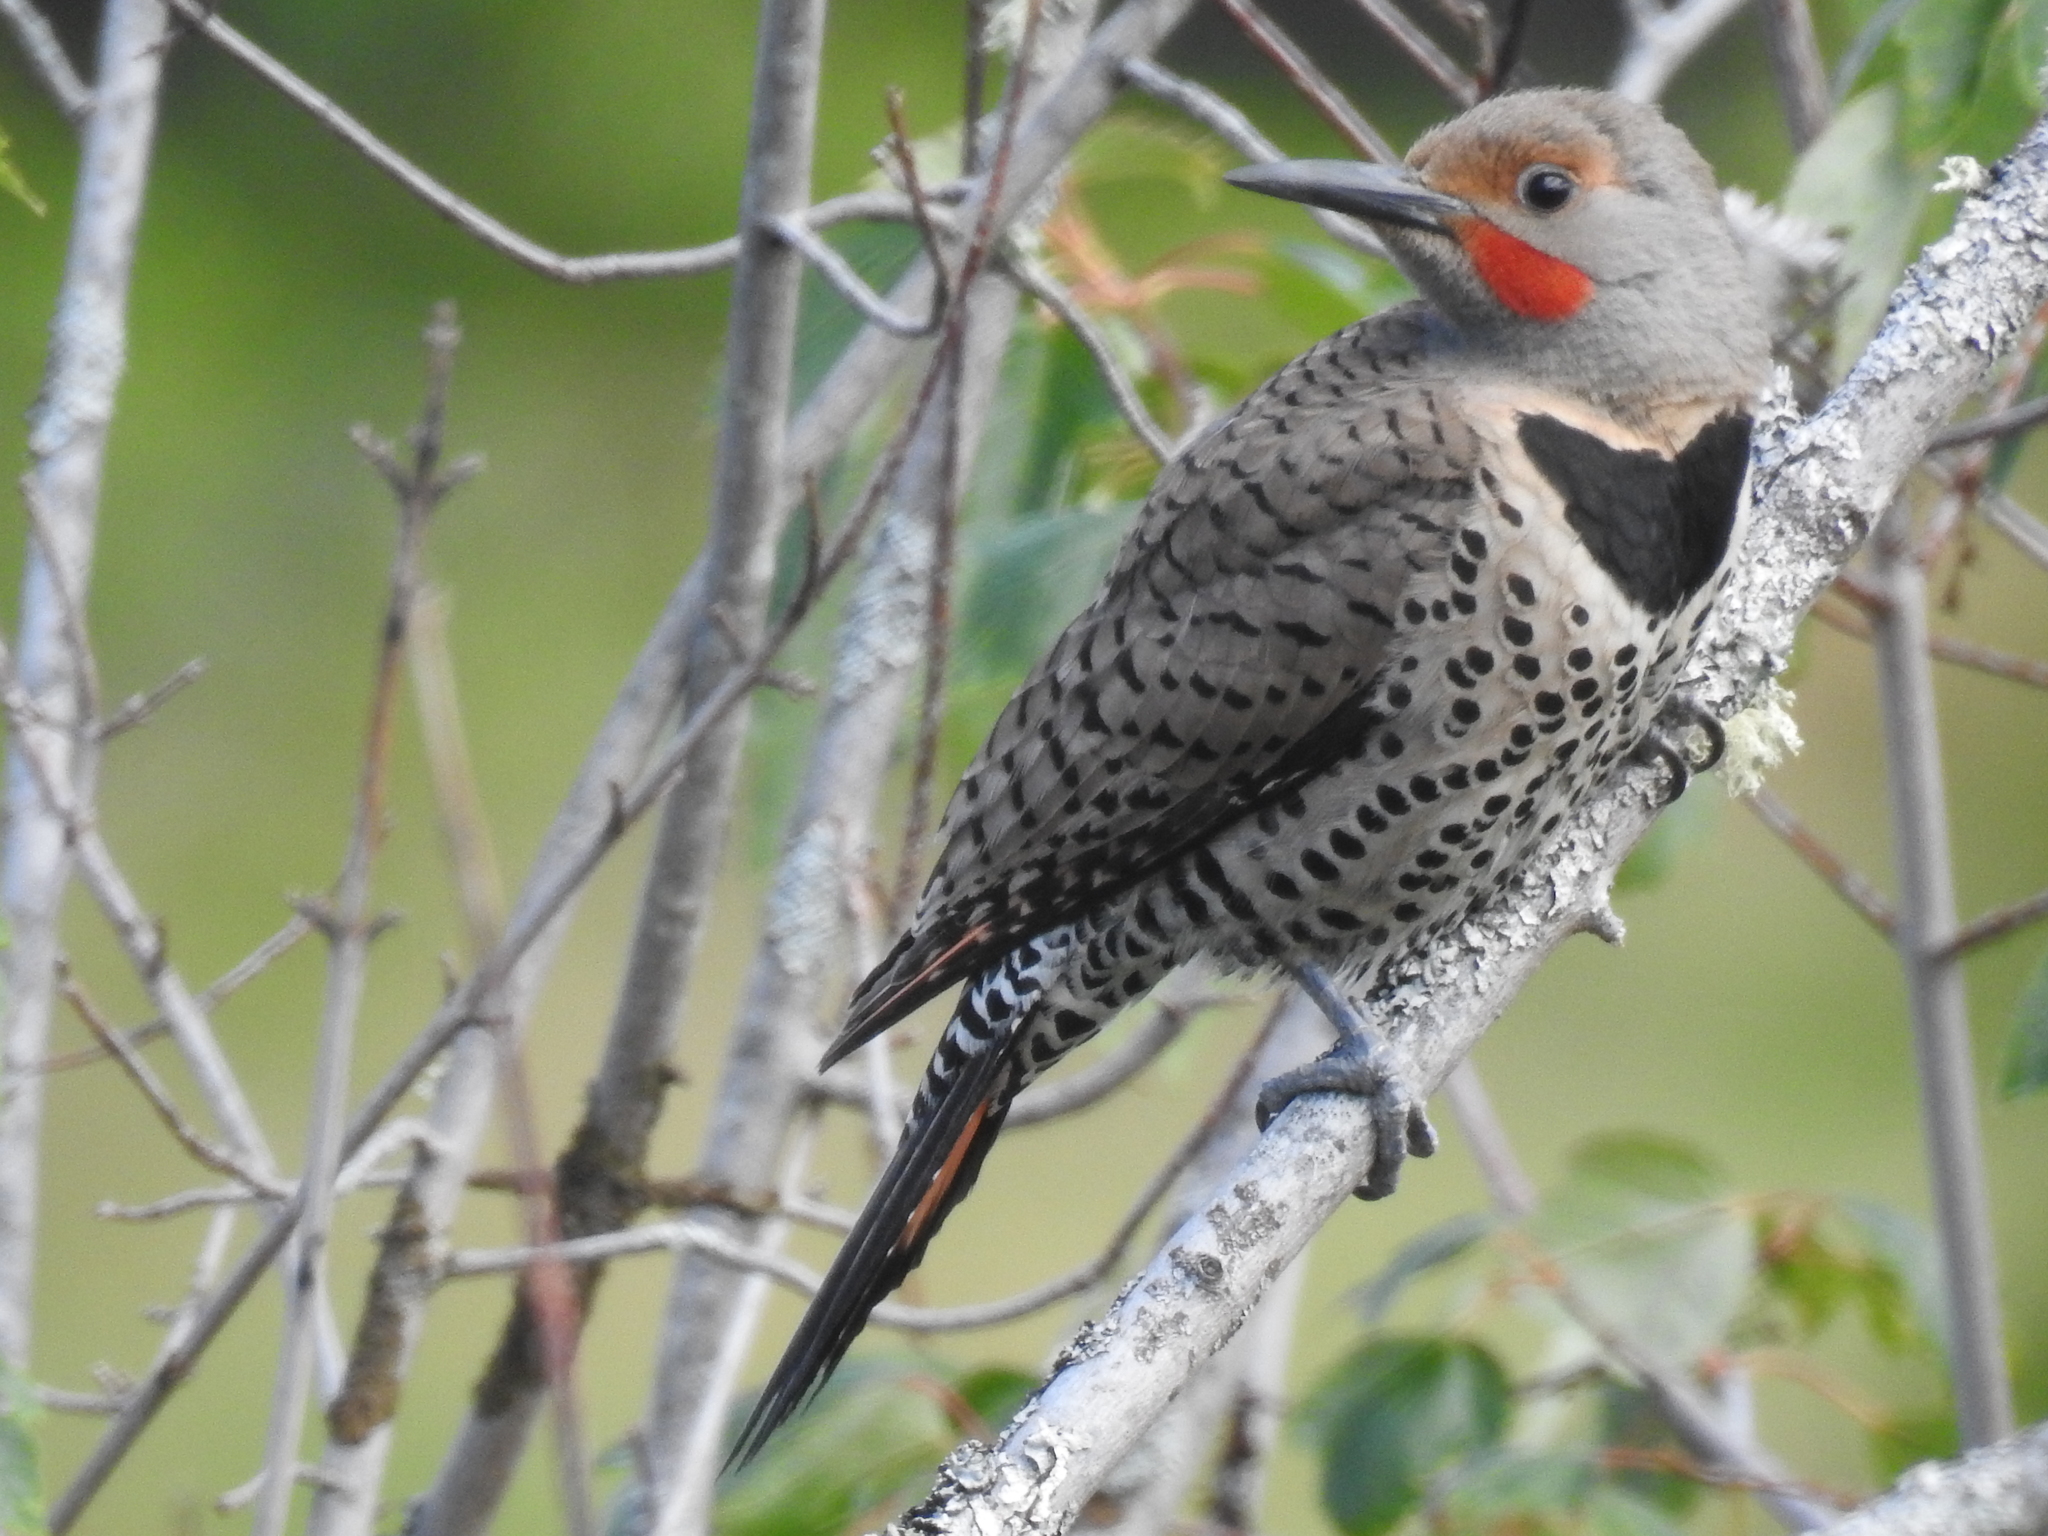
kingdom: Animalia
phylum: Chordata
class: Aves
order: Piciformes
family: Picidae
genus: Colaptes
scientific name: Colaptes auratus
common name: Northern flicker
